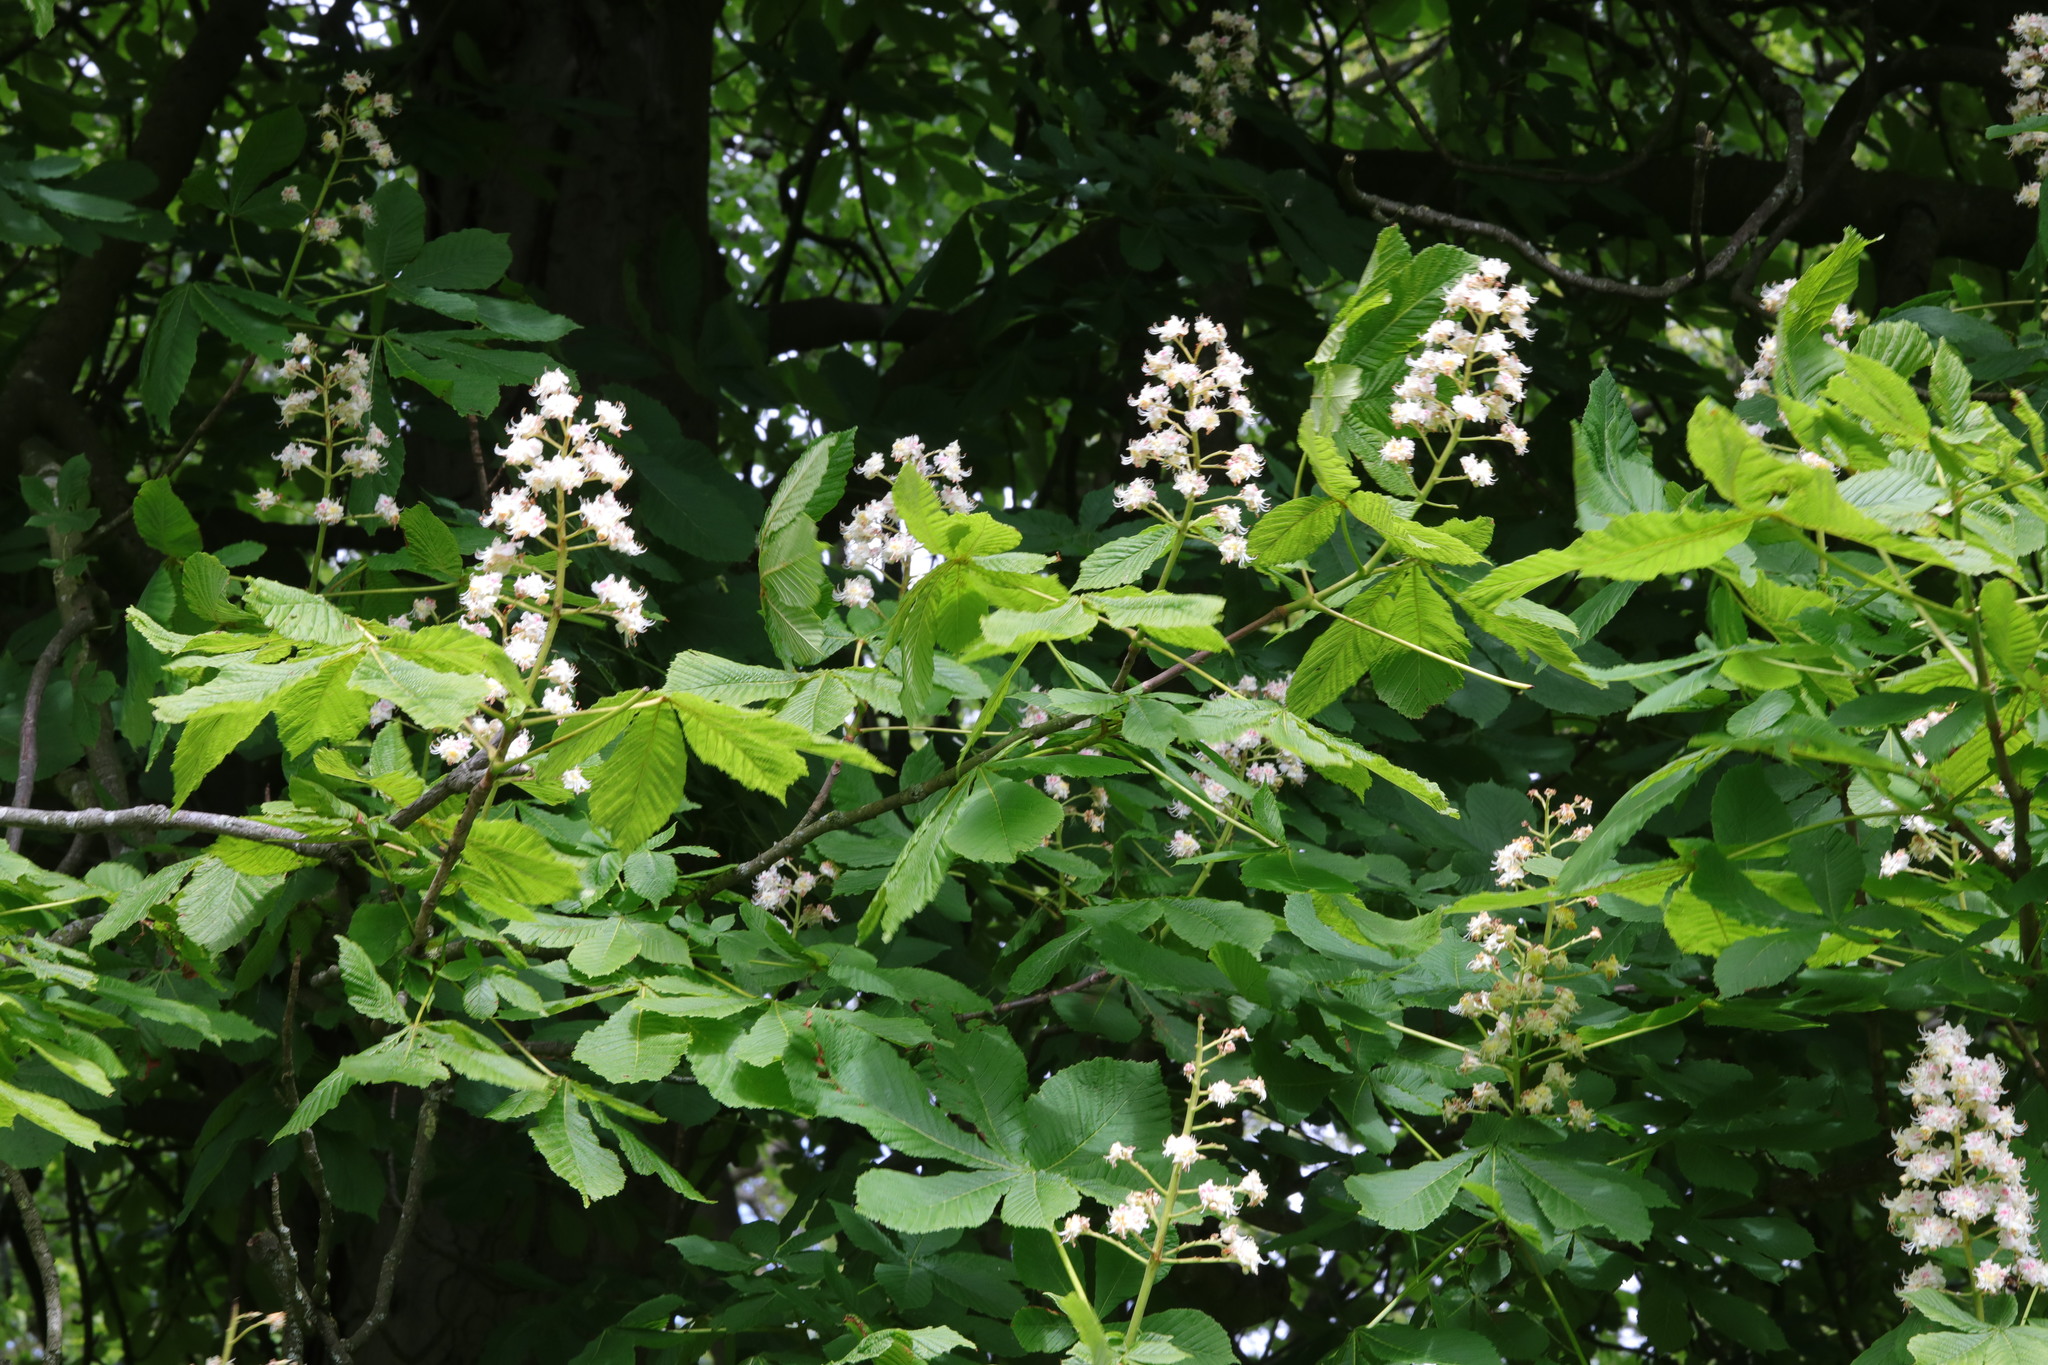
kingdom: Plantae
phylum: Tracheophyta
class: Magnoliopsida
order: Sapindales
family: Sapindaceae
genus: Aesculus
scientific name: Aesculus hippocastanum
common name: Horse-chestnut
